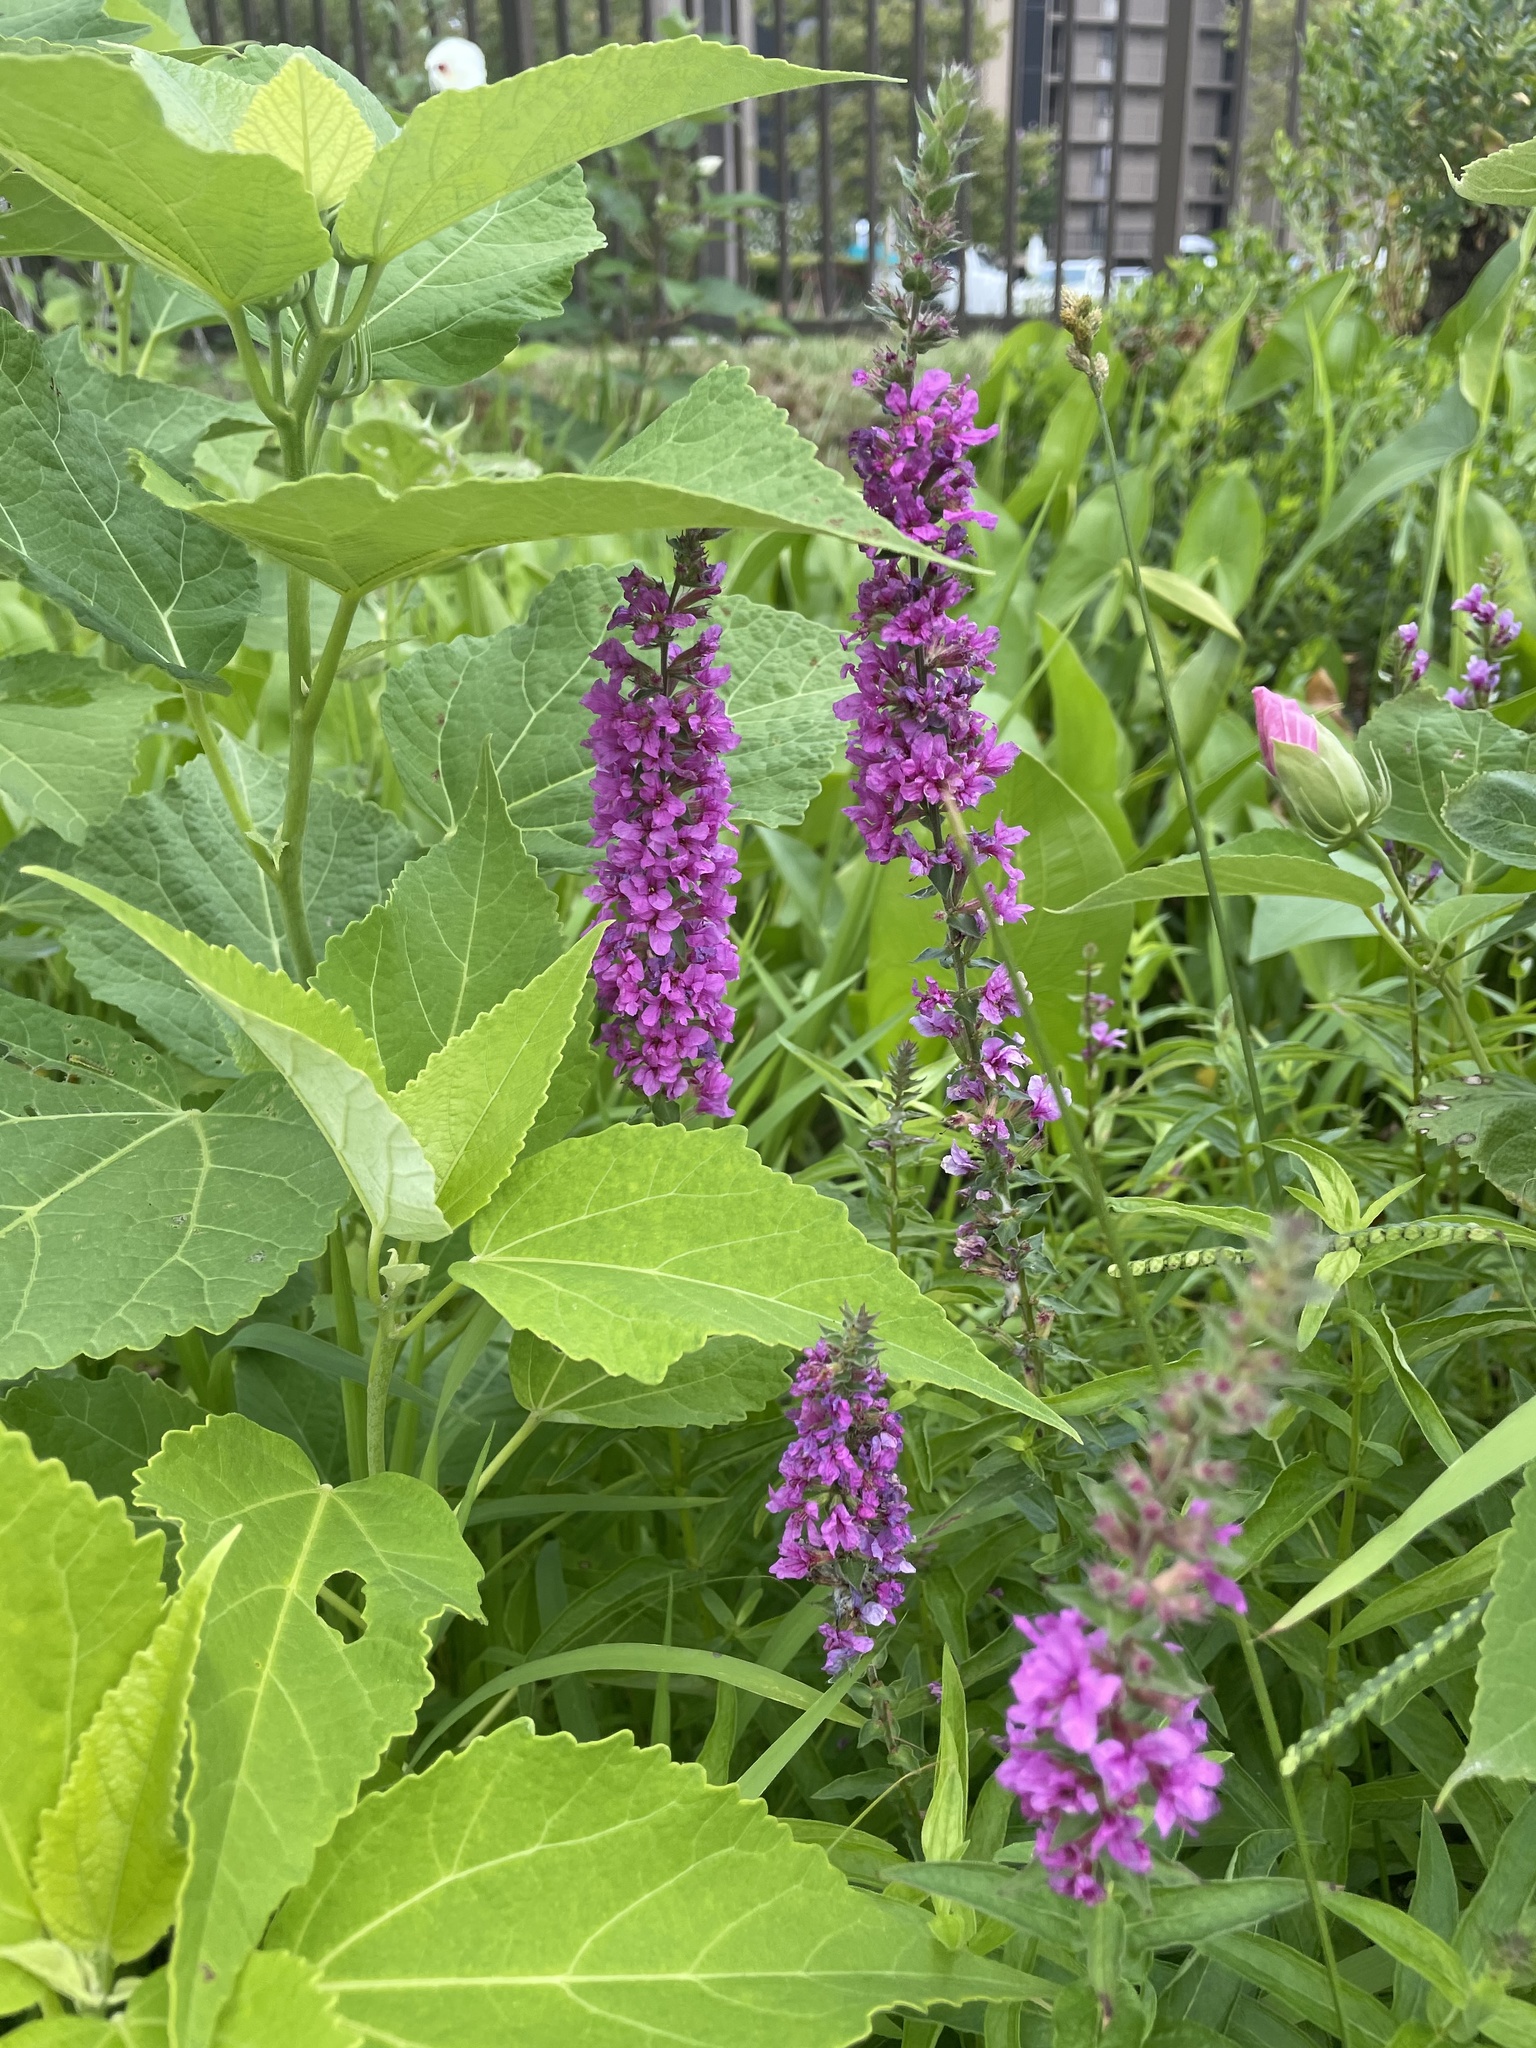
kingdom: Plantae
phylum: Tracheophyta
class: Magnoliopsida
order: Myrtales
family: Lythraceae
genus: Lythrum
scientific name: Lythrum salicaria
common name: Purple loosestrife
